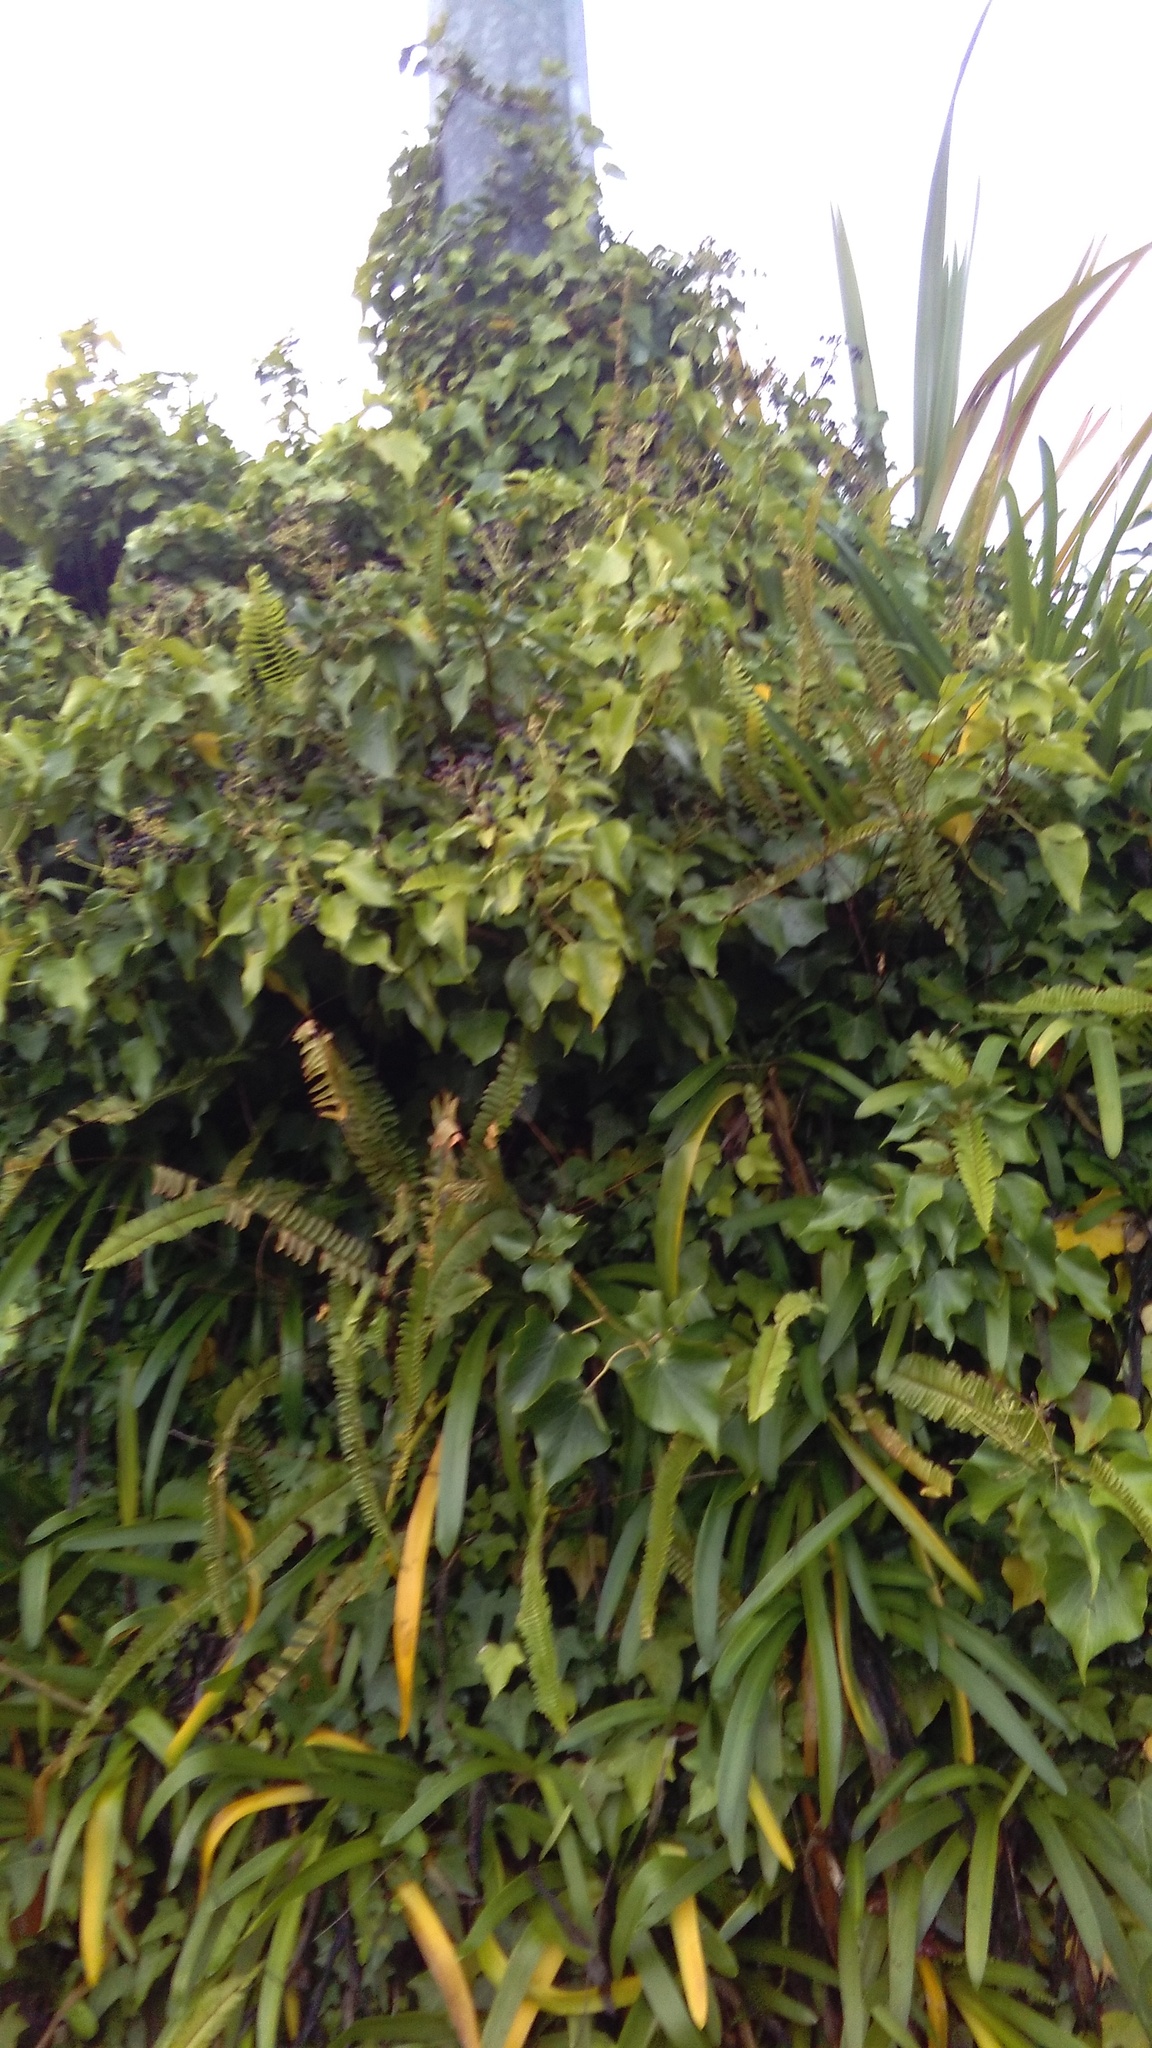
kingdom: Plantae
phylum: Tracheophyta
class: Magnoliopsida
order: Apiales
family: Araliaceae
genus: Hedera
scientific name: Hedera helix
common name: Ivy
